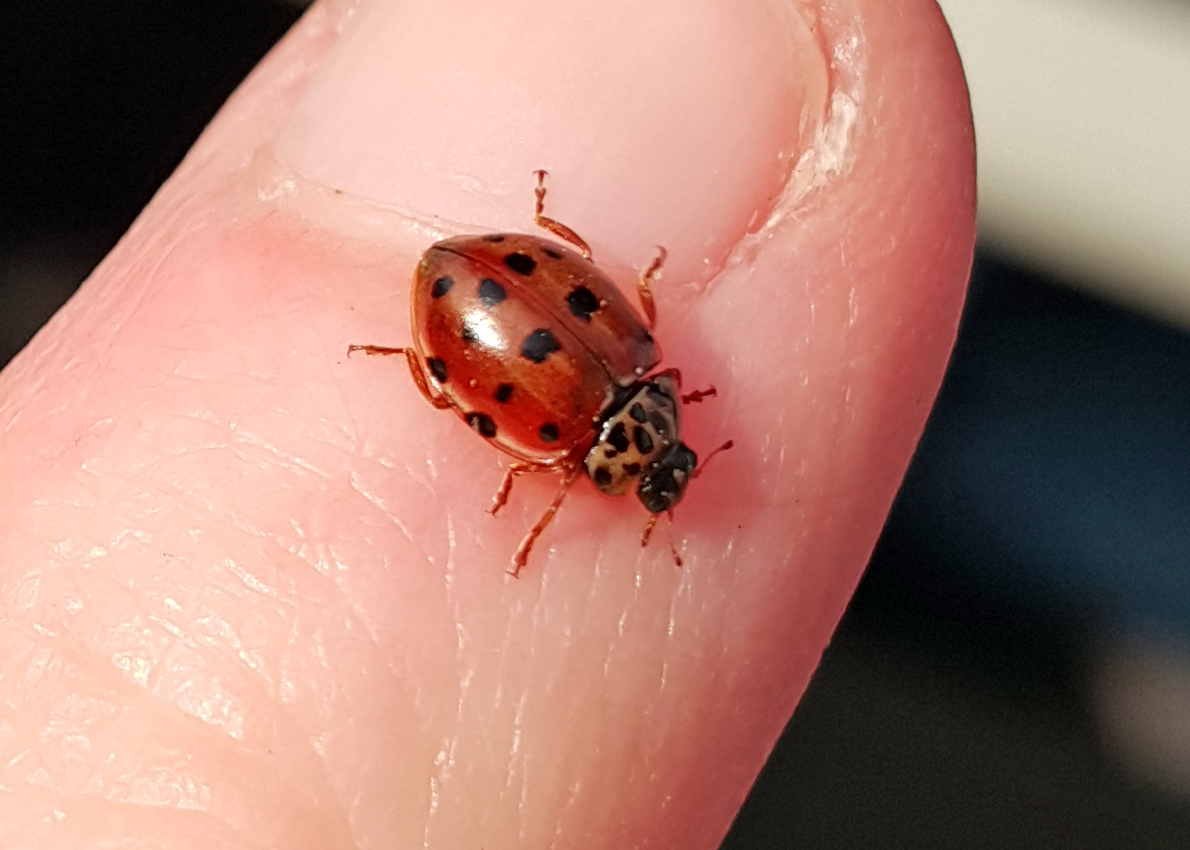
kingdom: Animalia
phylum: Arthropoda
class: Insecta
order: Coleoptera
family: Coccinellidae
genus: Harmonia
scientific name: Harmonia quadripunctata
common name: Cream-streaked ladybird
